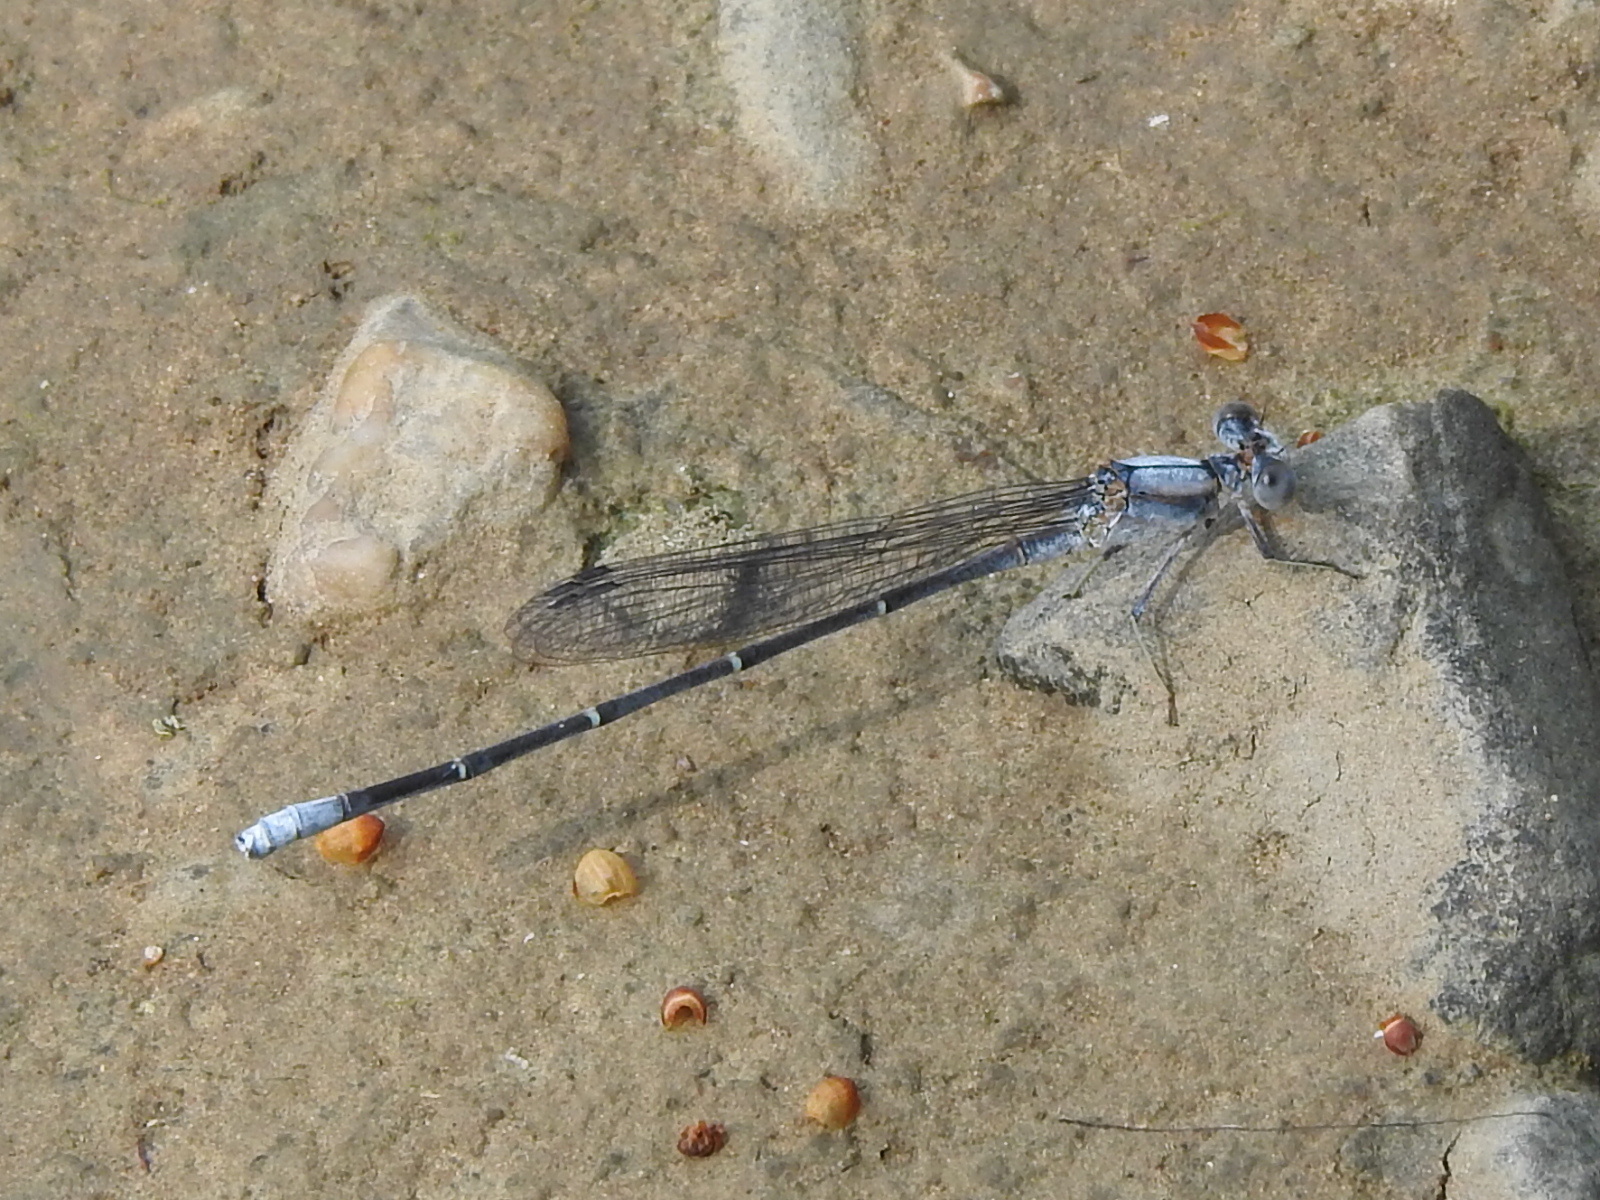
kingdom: Animalia
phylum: Arthropoda
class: Insecta
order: Odonata
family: Coenagrionidae
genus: Argia
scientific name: Argia moesta
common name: Powdered dancer
